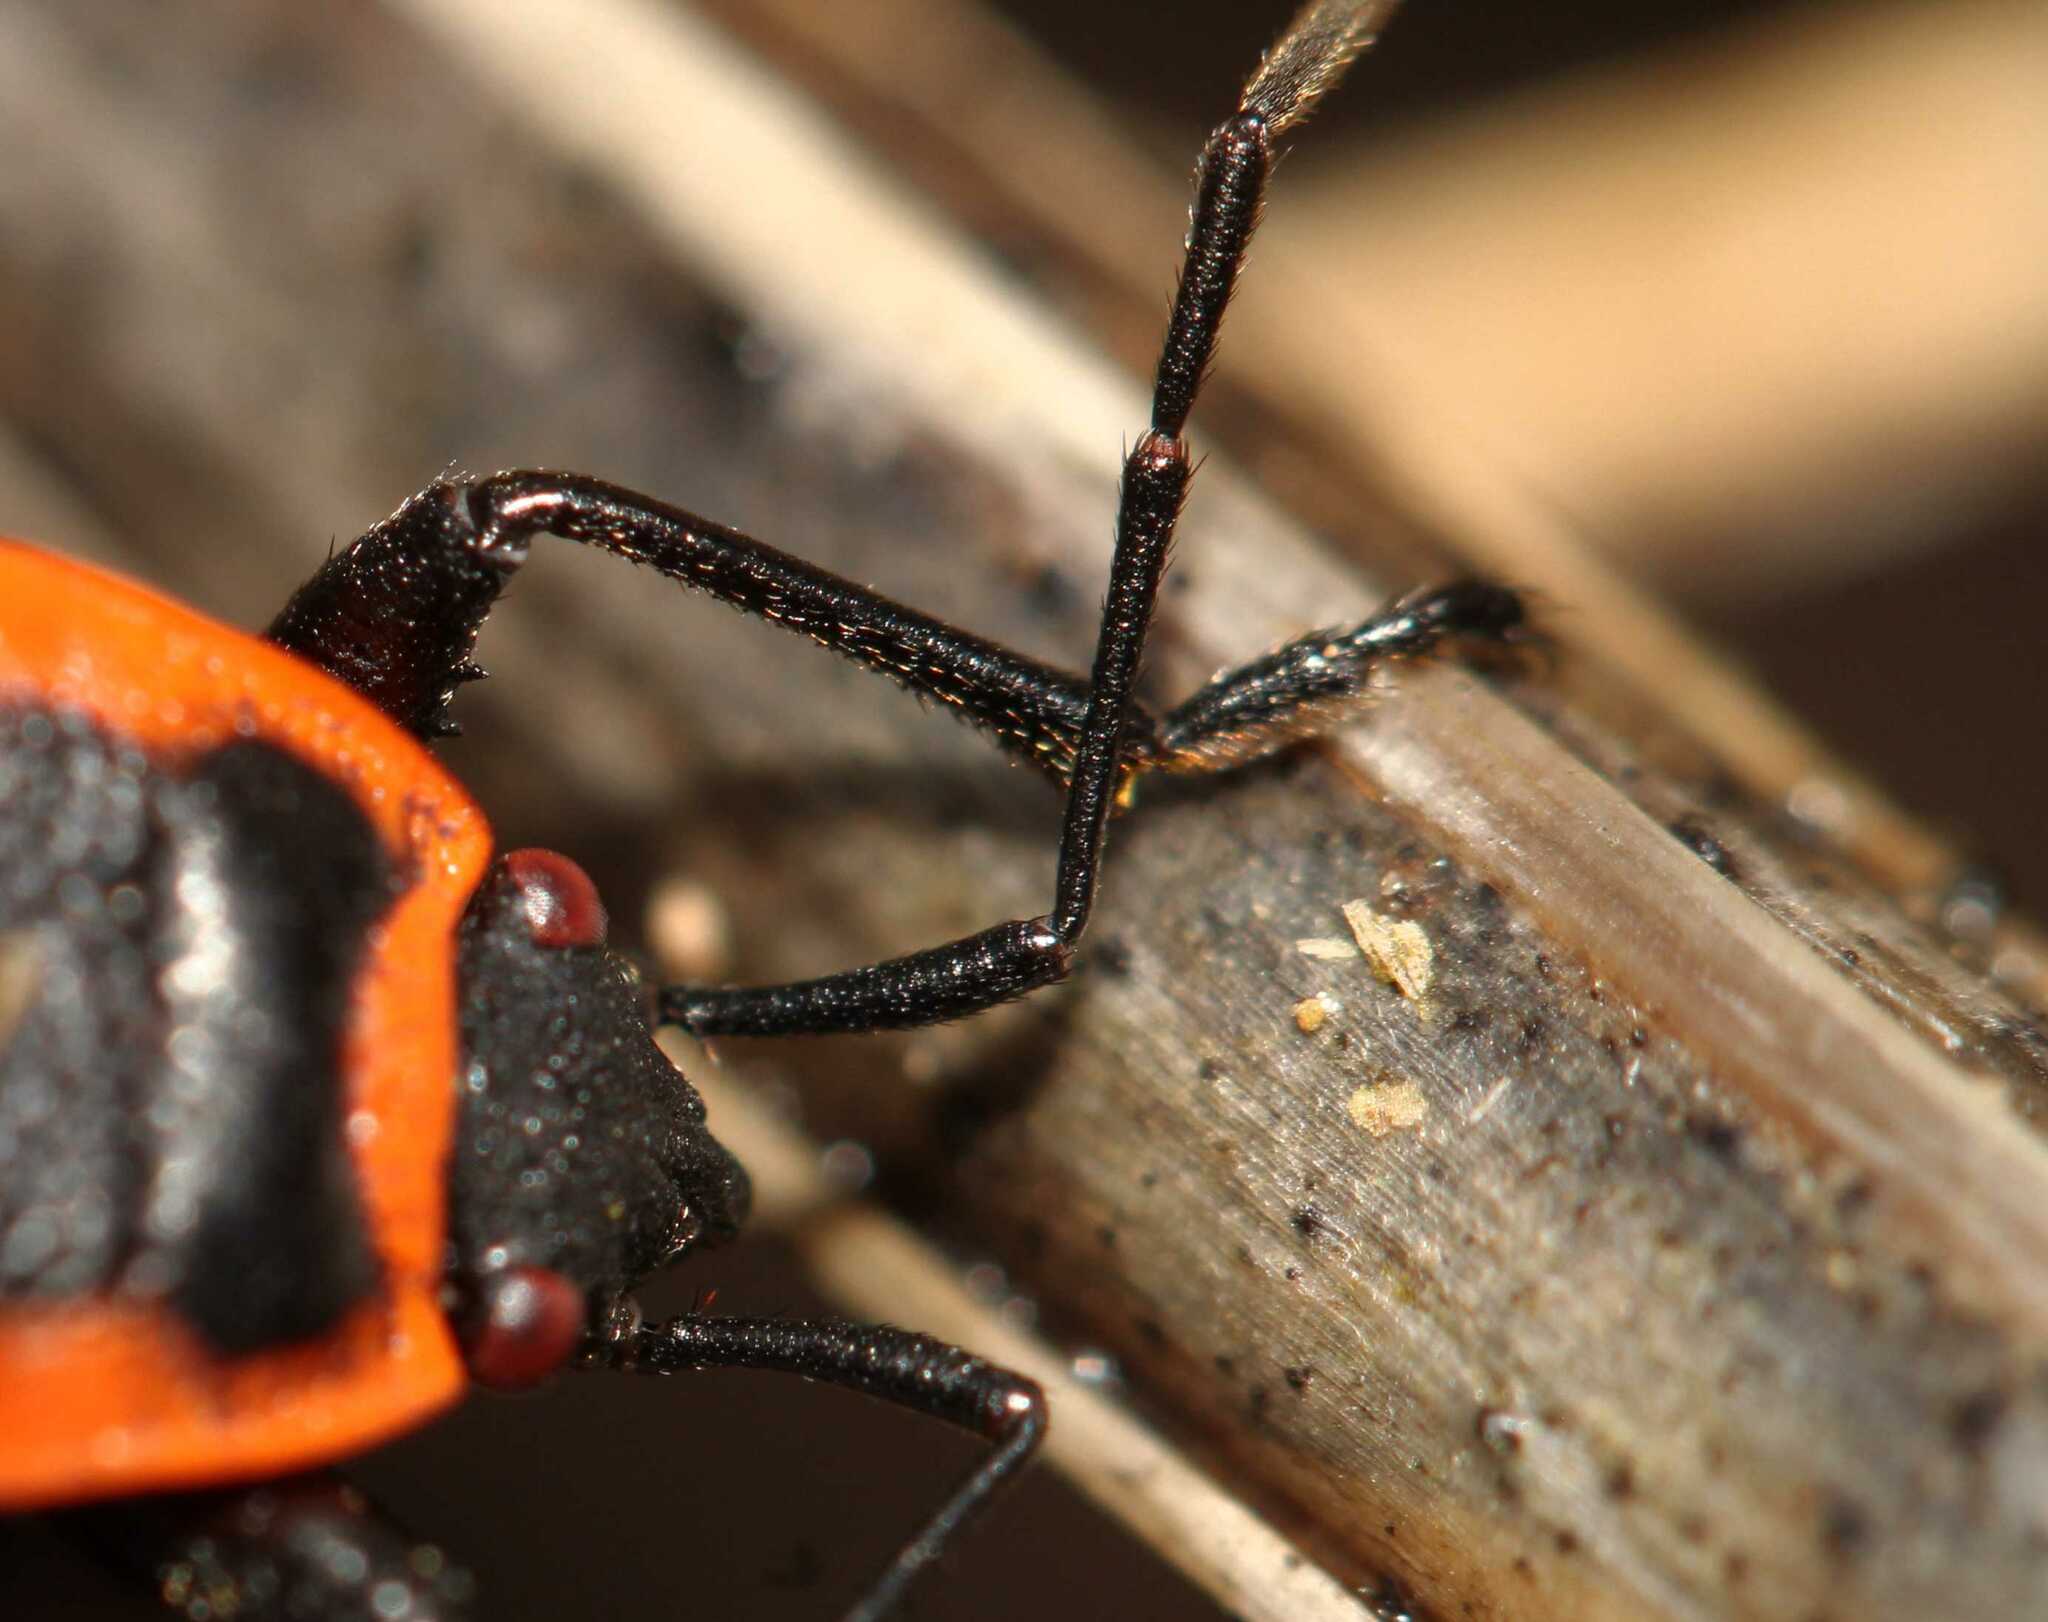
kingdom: Animalia
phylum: Arthropoda
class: Insecta
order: Hemiptera
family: Pyrrhocoridae
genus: Pyrrhocoris
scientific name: Pyrrhocoris apterus
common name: Firebug
